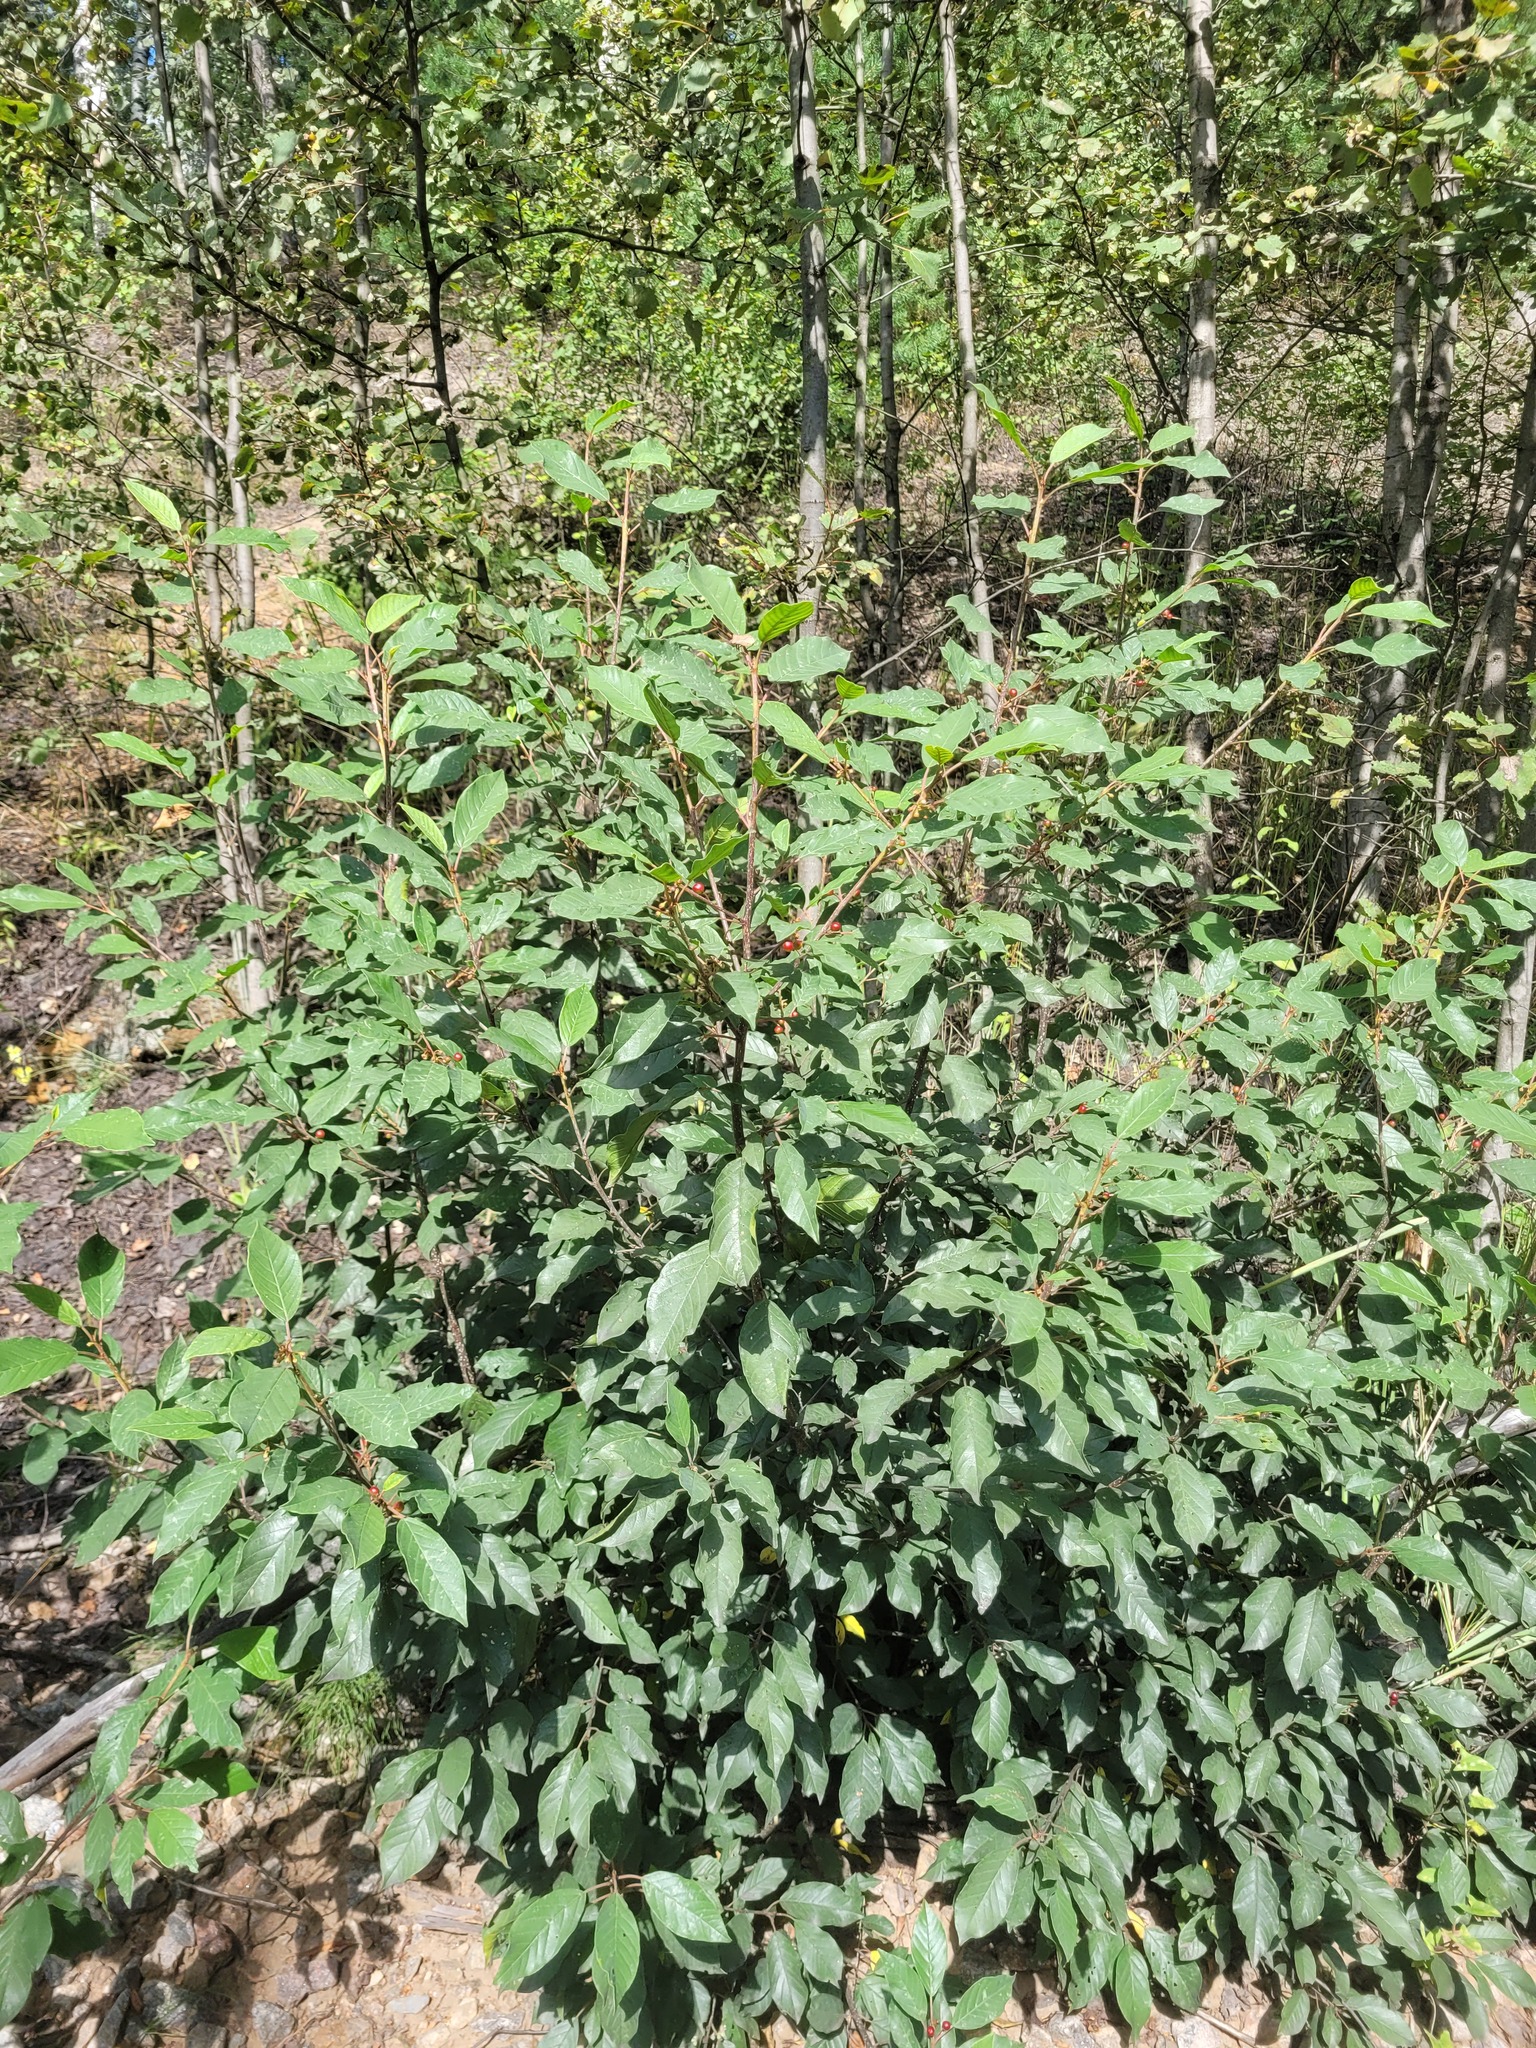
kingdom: Plantae
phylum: Tracheophyta
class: Magnoliopsida
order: Rosales
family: Rhamnaceae
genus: Frangula
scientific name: Frangula alnus
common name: Alder buckthorn
